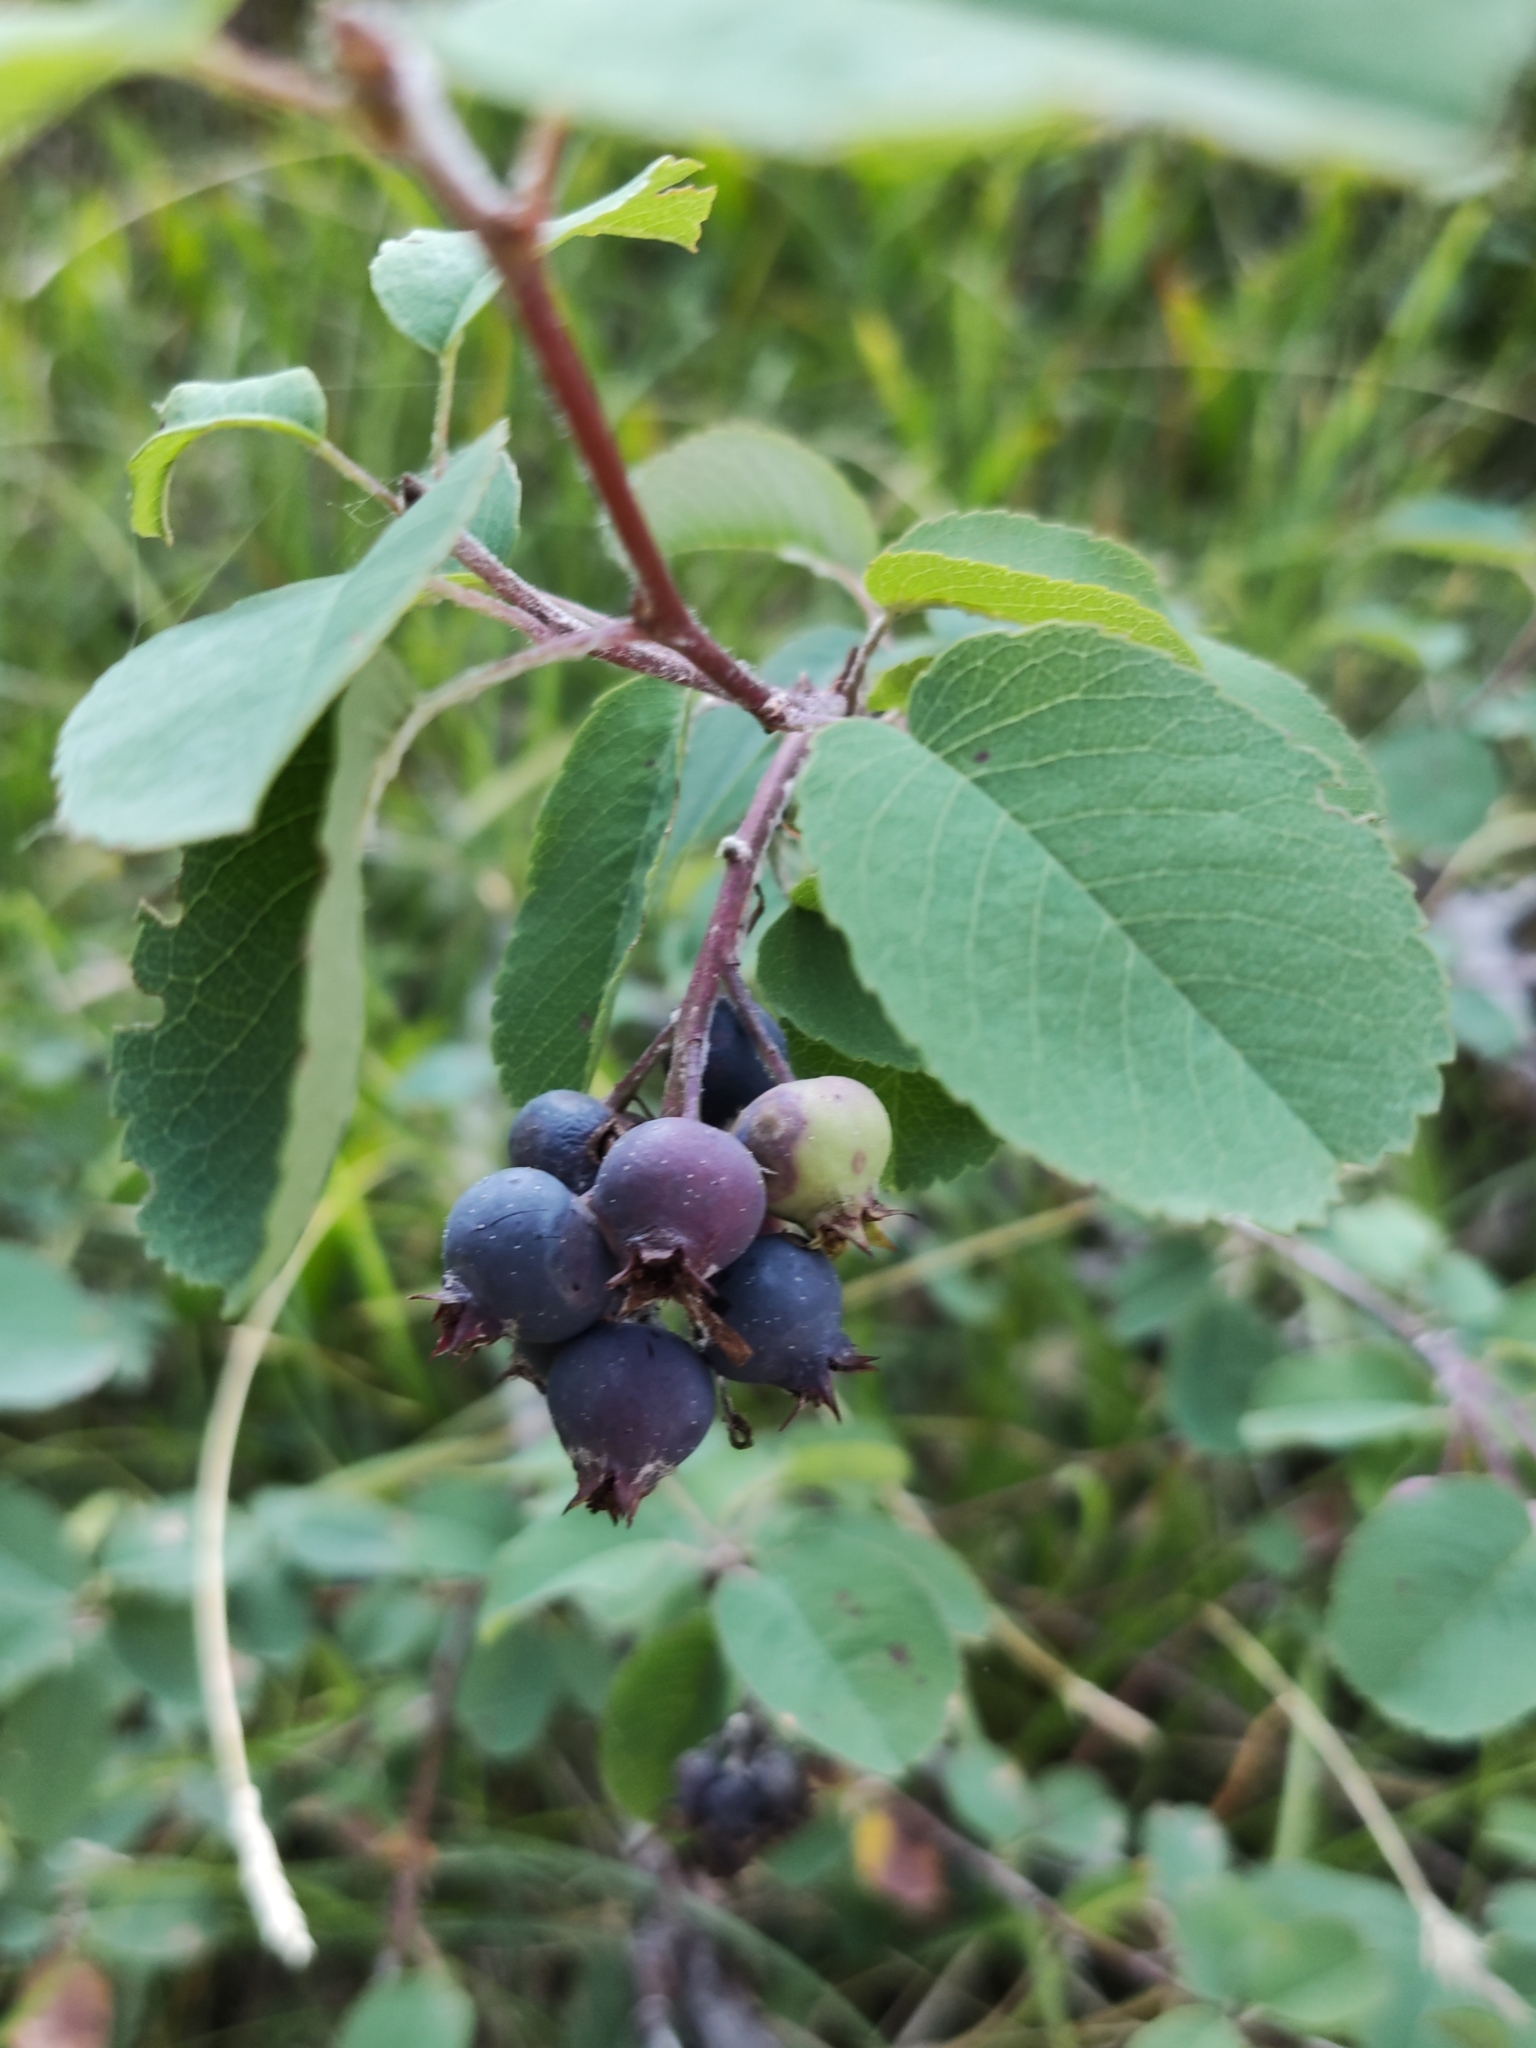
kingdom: Plantae
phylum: Tracheophyta
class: Magnoliopsida
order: Rosales
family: Rosaceae
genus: Amelanchier
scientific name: Amelanchier ovalis
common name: Serviceberry
